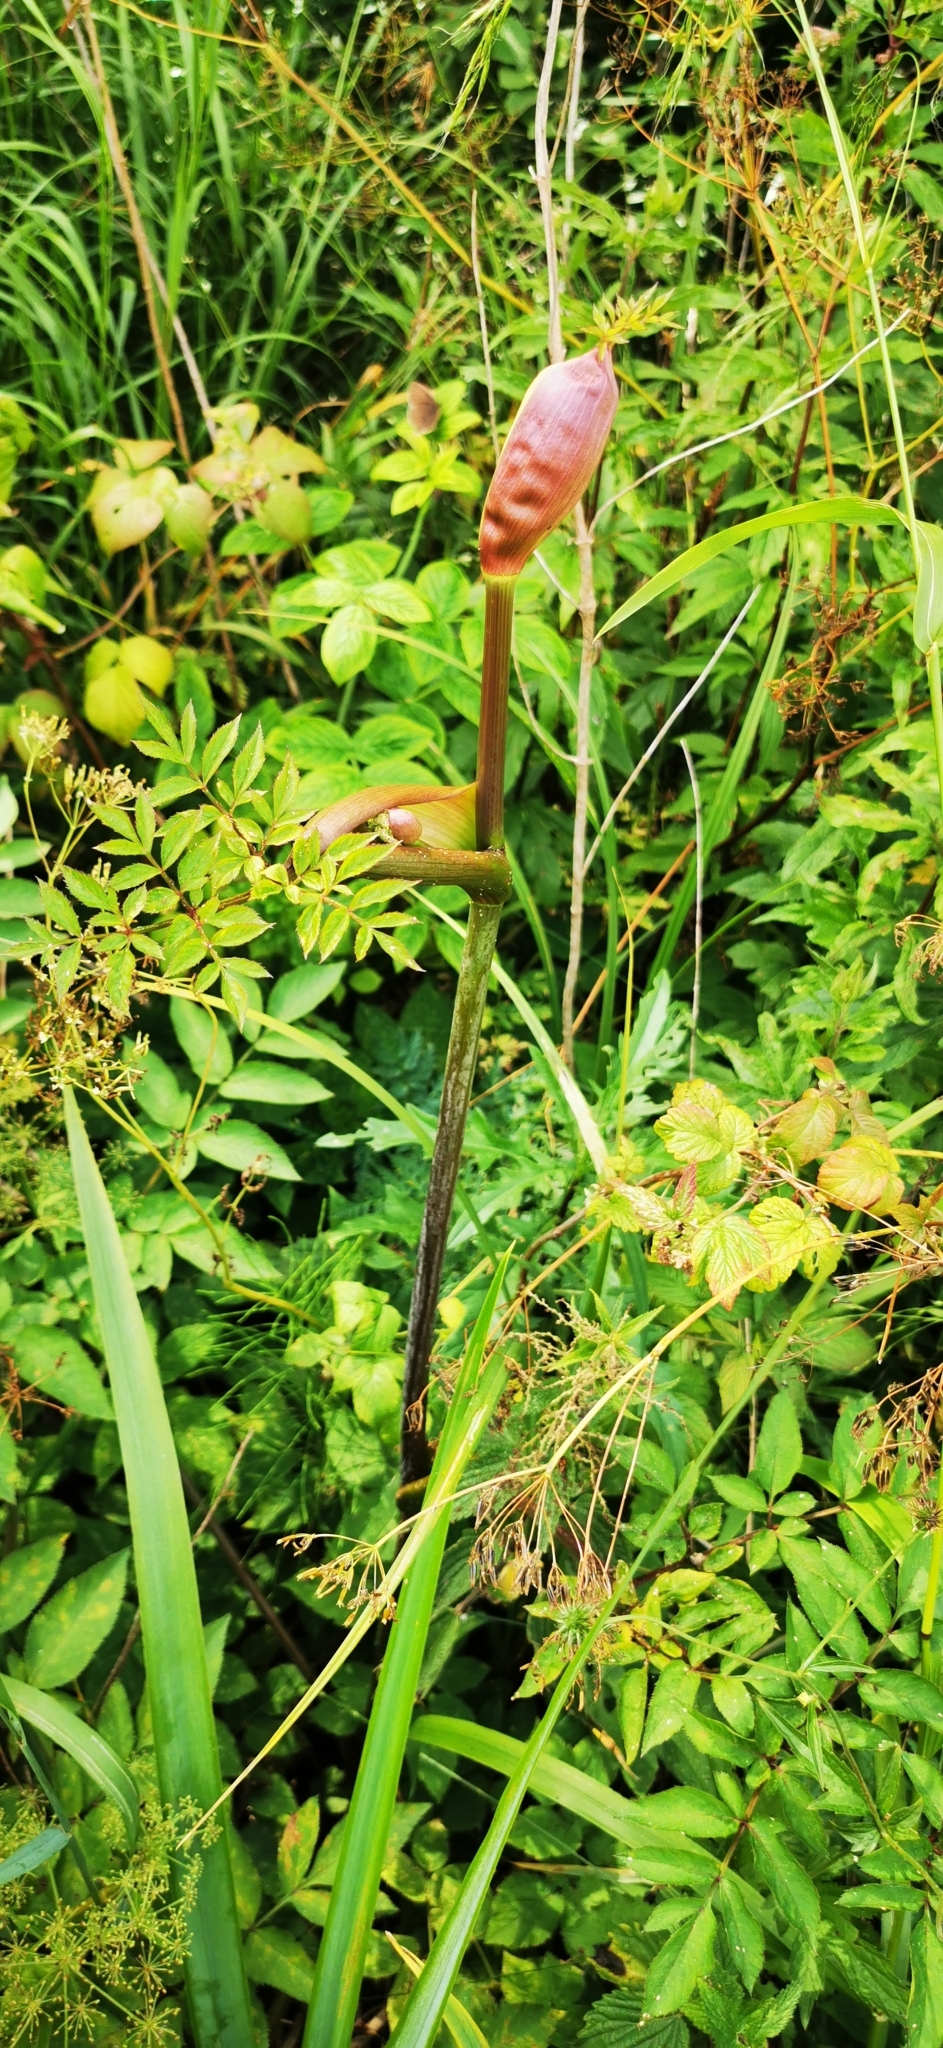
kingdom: Plantae
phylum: Tracheophyta
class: Magnoliopsida
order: Apiales
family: Apiaceae
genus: Angelica
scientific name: Angelica sylvestris
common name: Wild angelica
